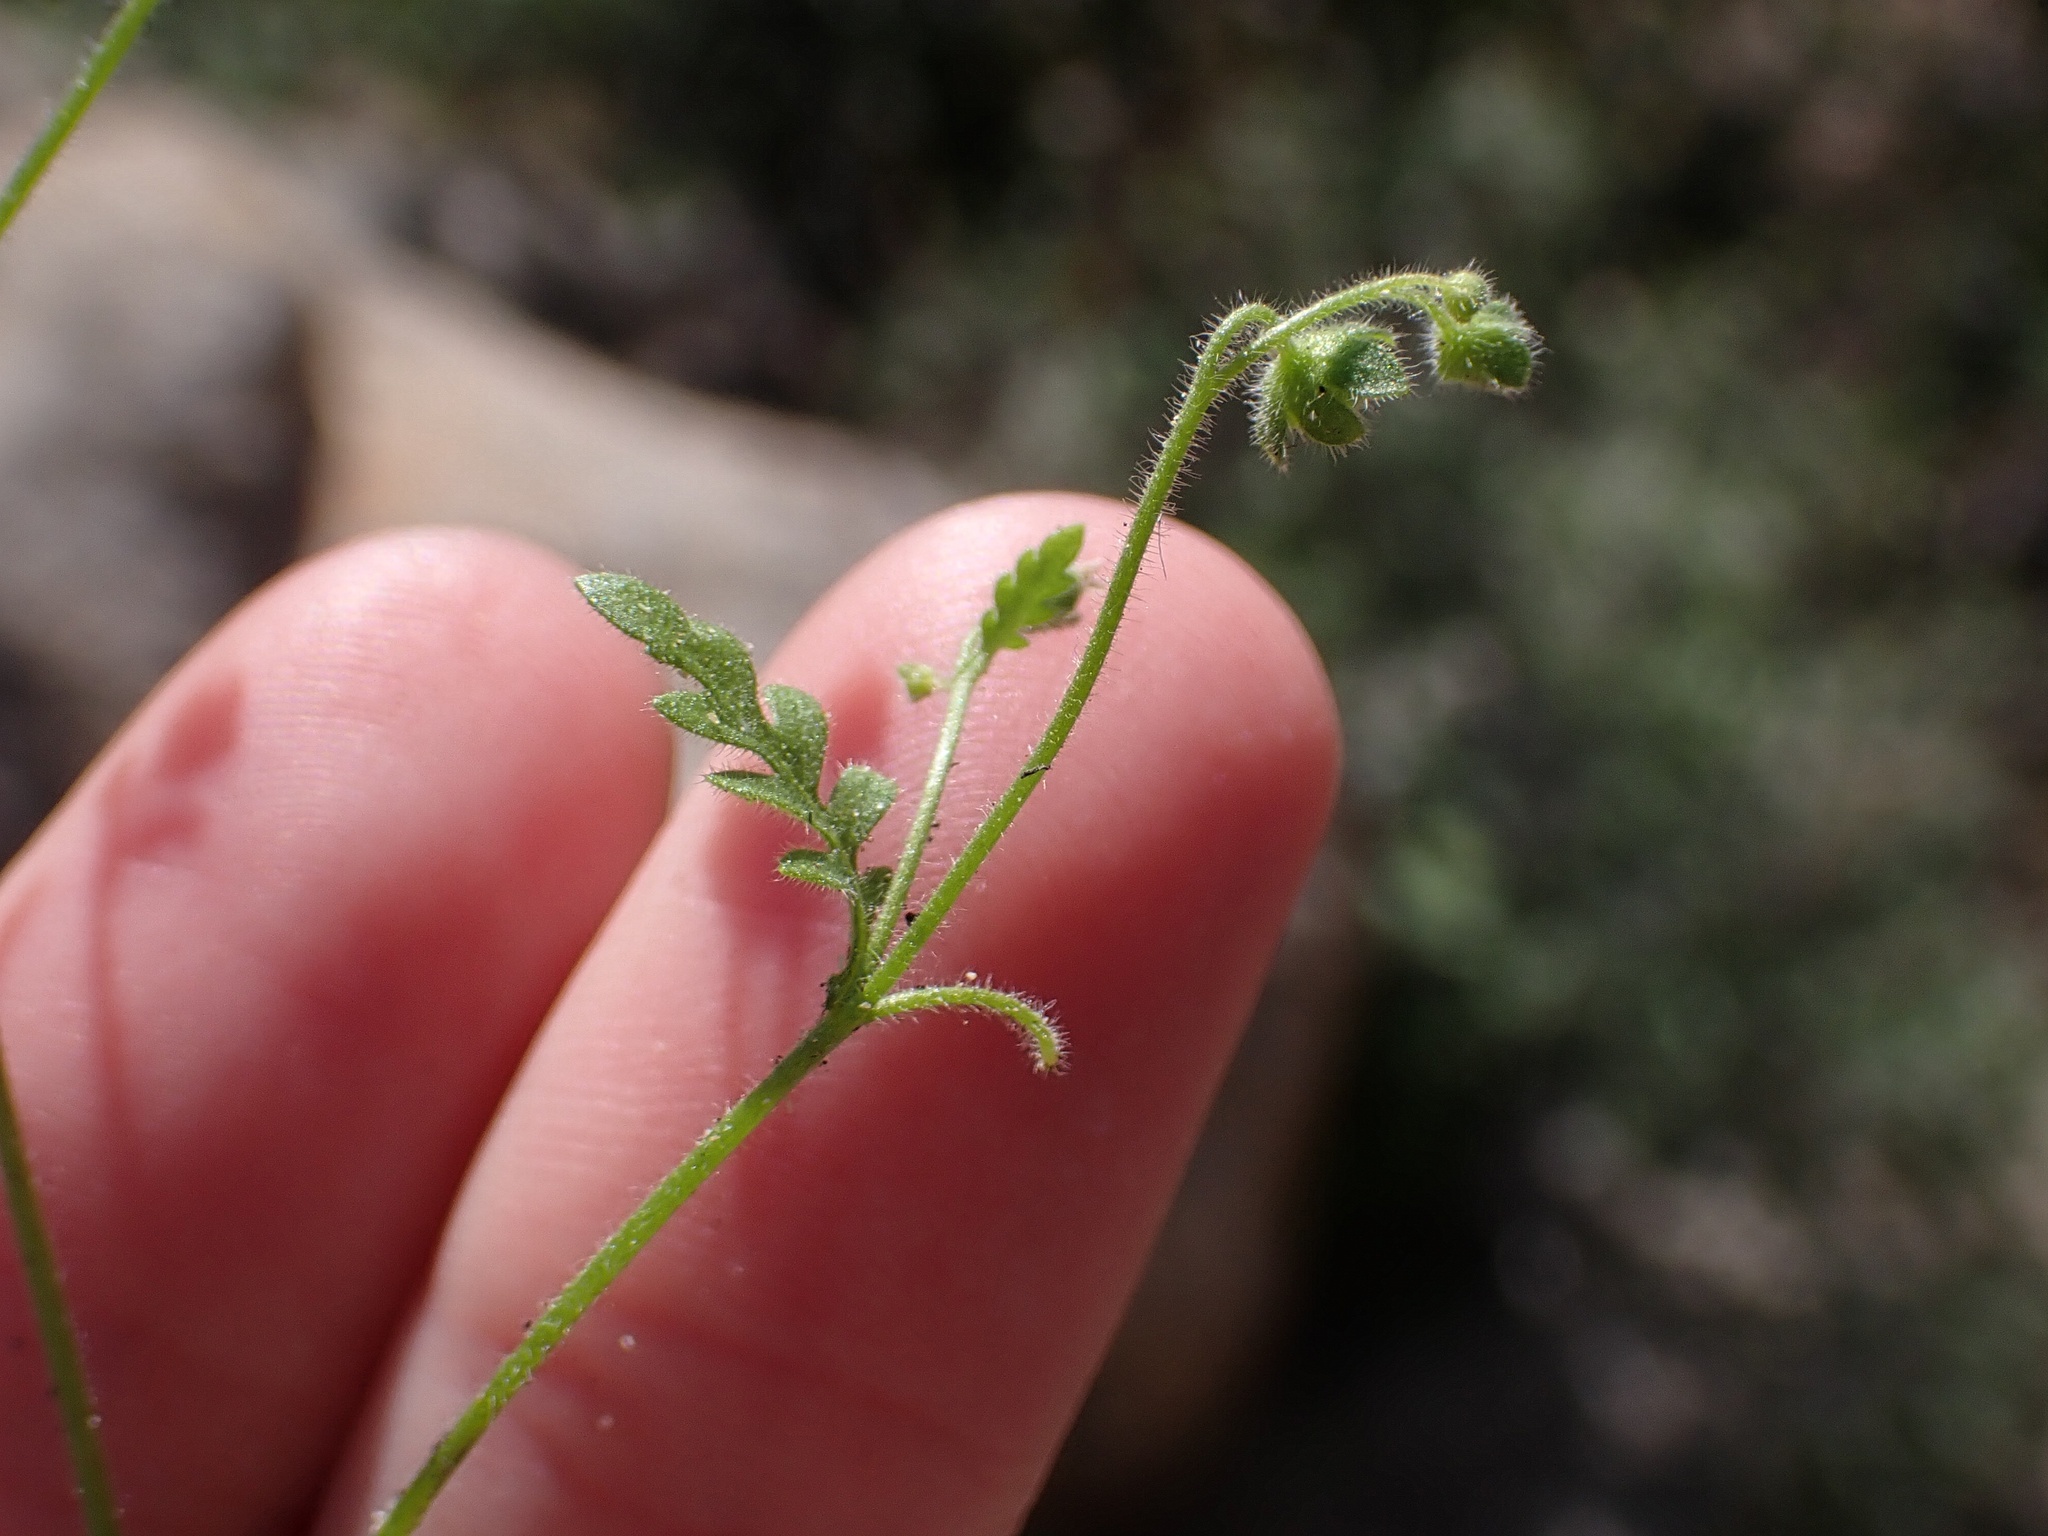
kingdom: Plantae
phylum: Tracheophyta
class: Magnoliopsida
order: Boraginales
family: Hydrophyllaceae
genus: Eucrypta
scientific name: Eucrypta chrysanthemifolia
